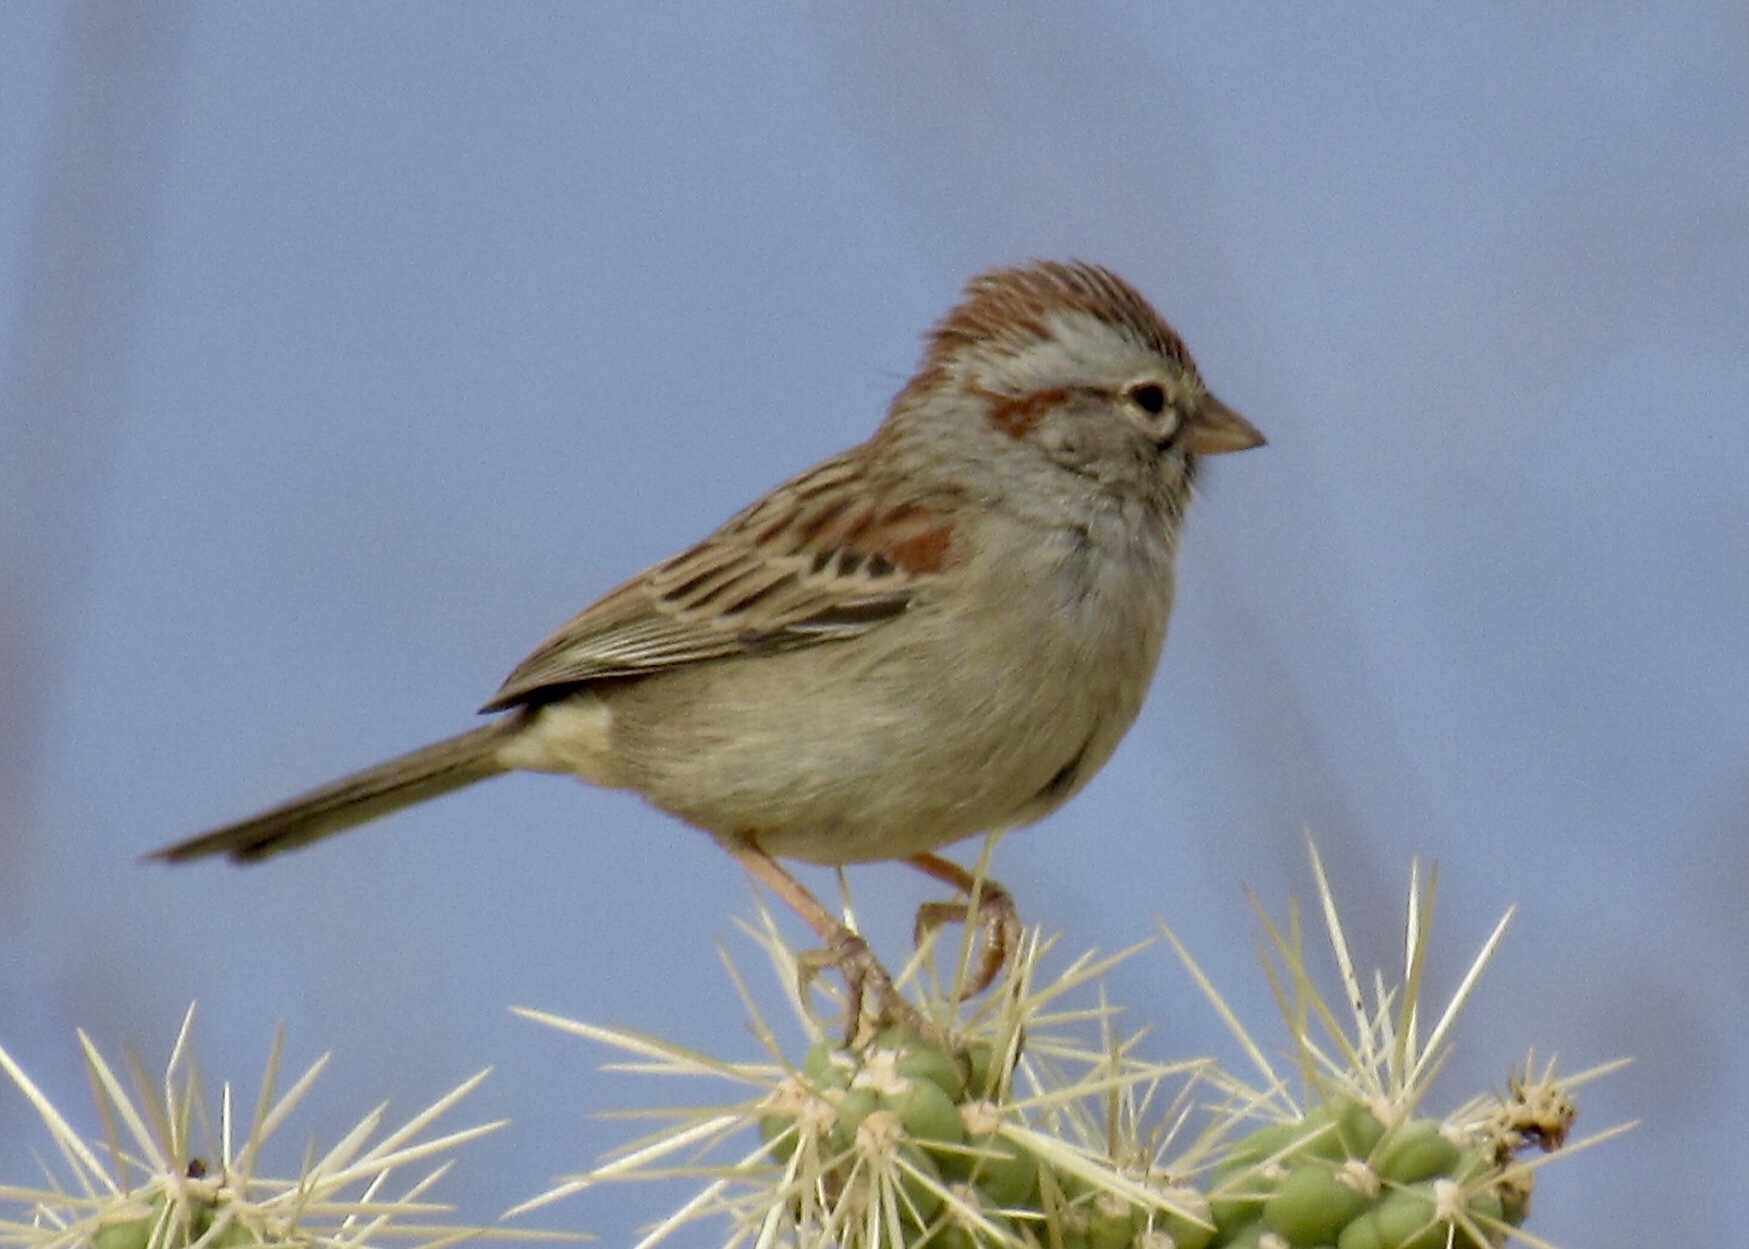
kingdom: Animalia
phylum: Chordata
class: Aves
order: Passeriformes
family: Passerellidae
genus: Peucaea
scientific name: Peucaea carpalis
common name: Rufous-winged sparrow
